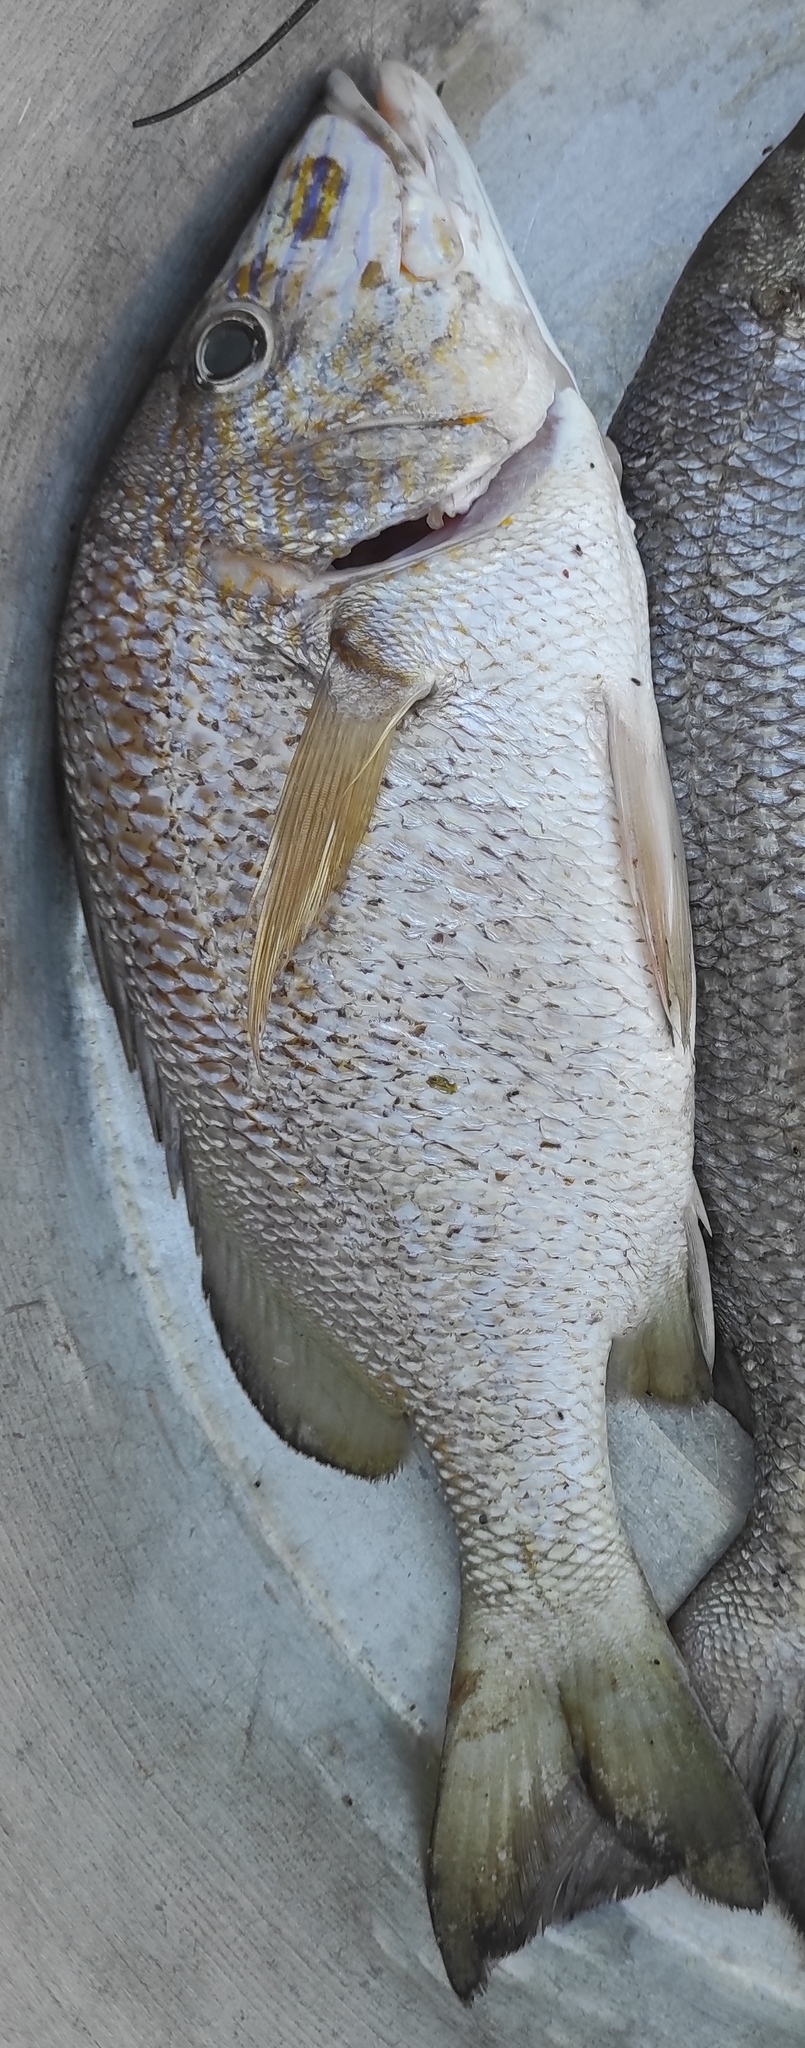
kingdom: Animalia
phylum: Chordata
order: Perciformes
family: Haemulidae
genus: Haemulon
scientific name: Haemulon plumierii
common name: White grunt
